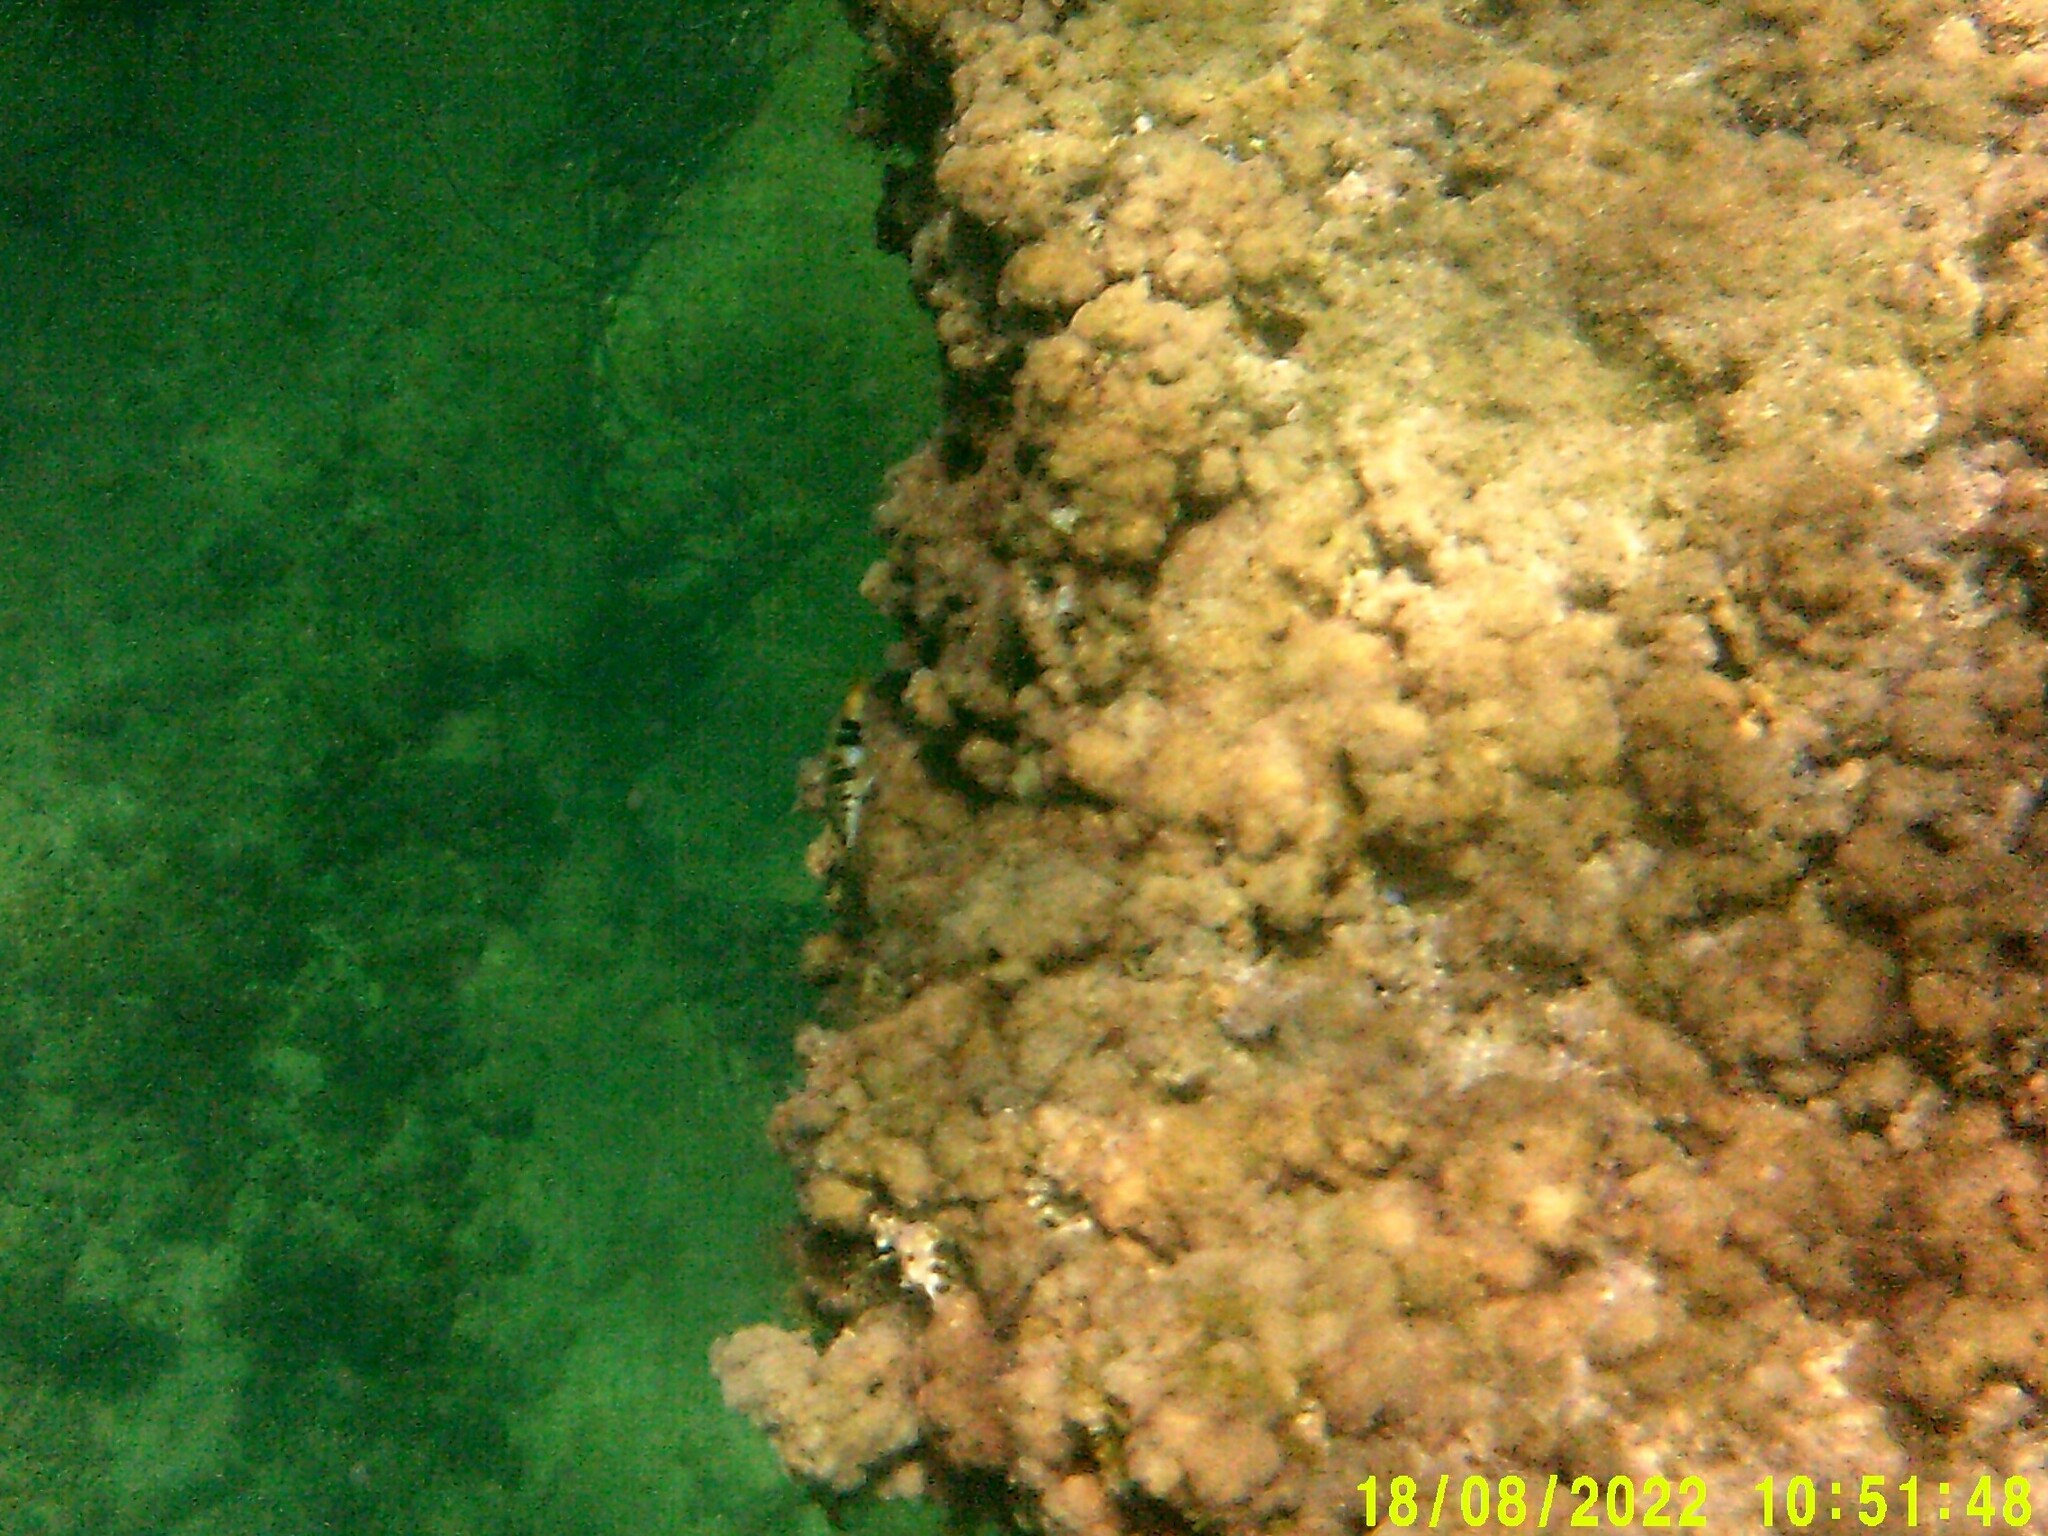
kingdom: Animalia
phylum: Chordata
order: Perciformes
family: Serranidae
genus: Serranus
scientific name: Serranus scriba
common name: Painted comber
